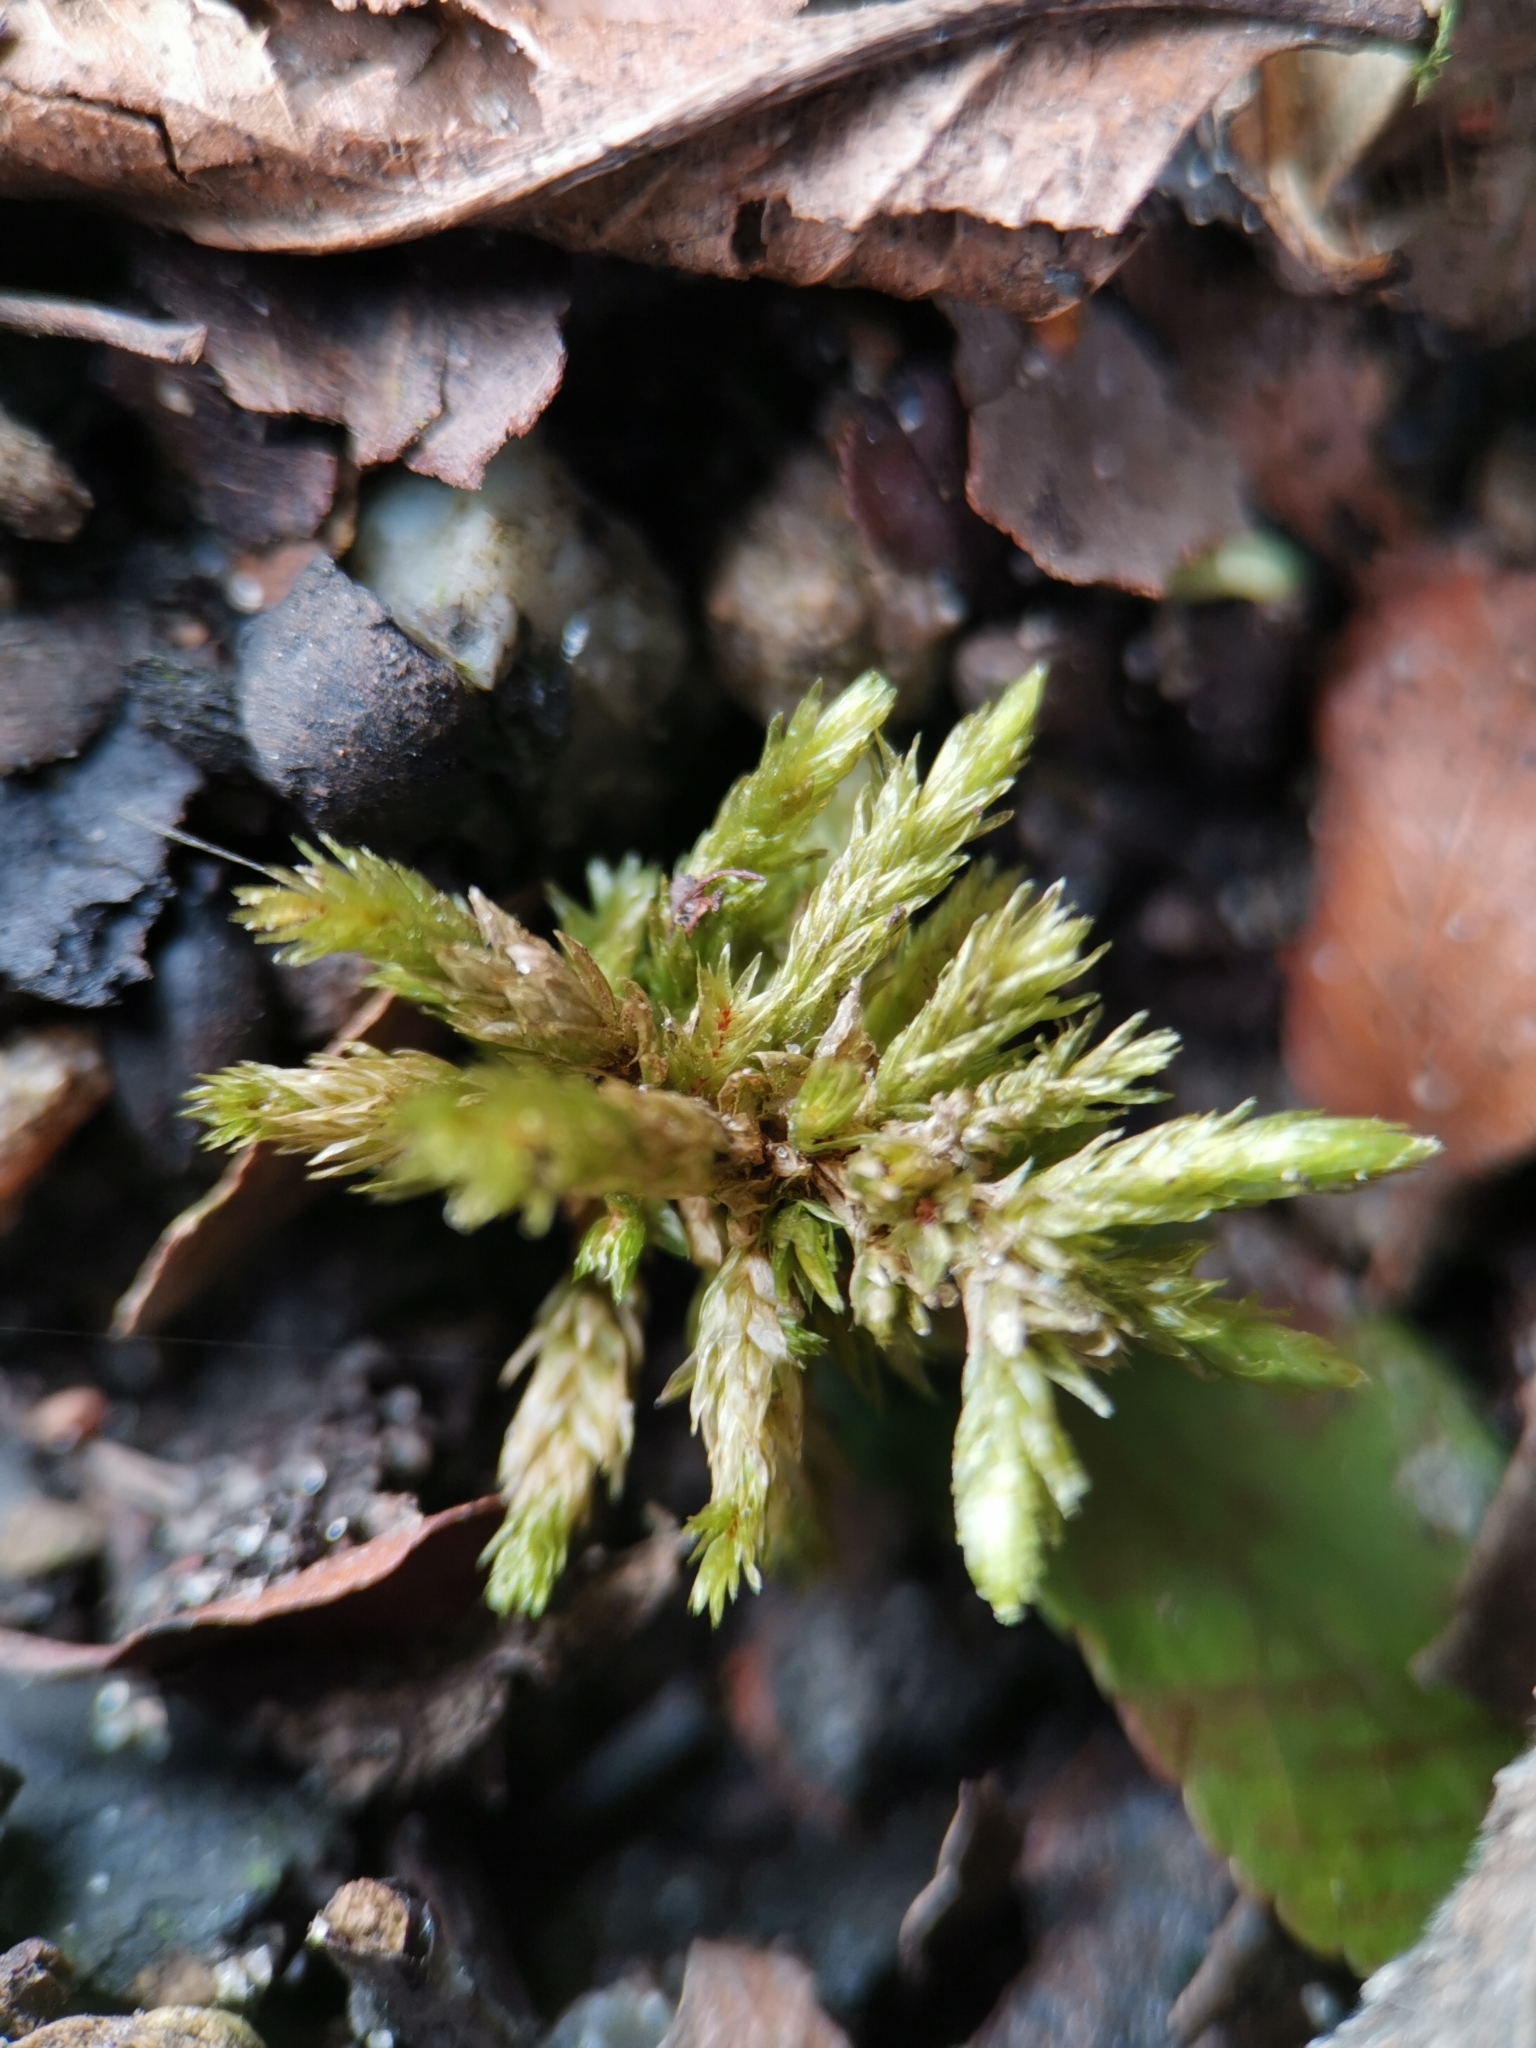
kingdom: Plantae
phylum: Bryophyta
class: Bryopsida
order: Hypnales
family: Climaciaceae
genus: Climacium
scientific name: Climacium dendroides
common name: Northern tree moss
